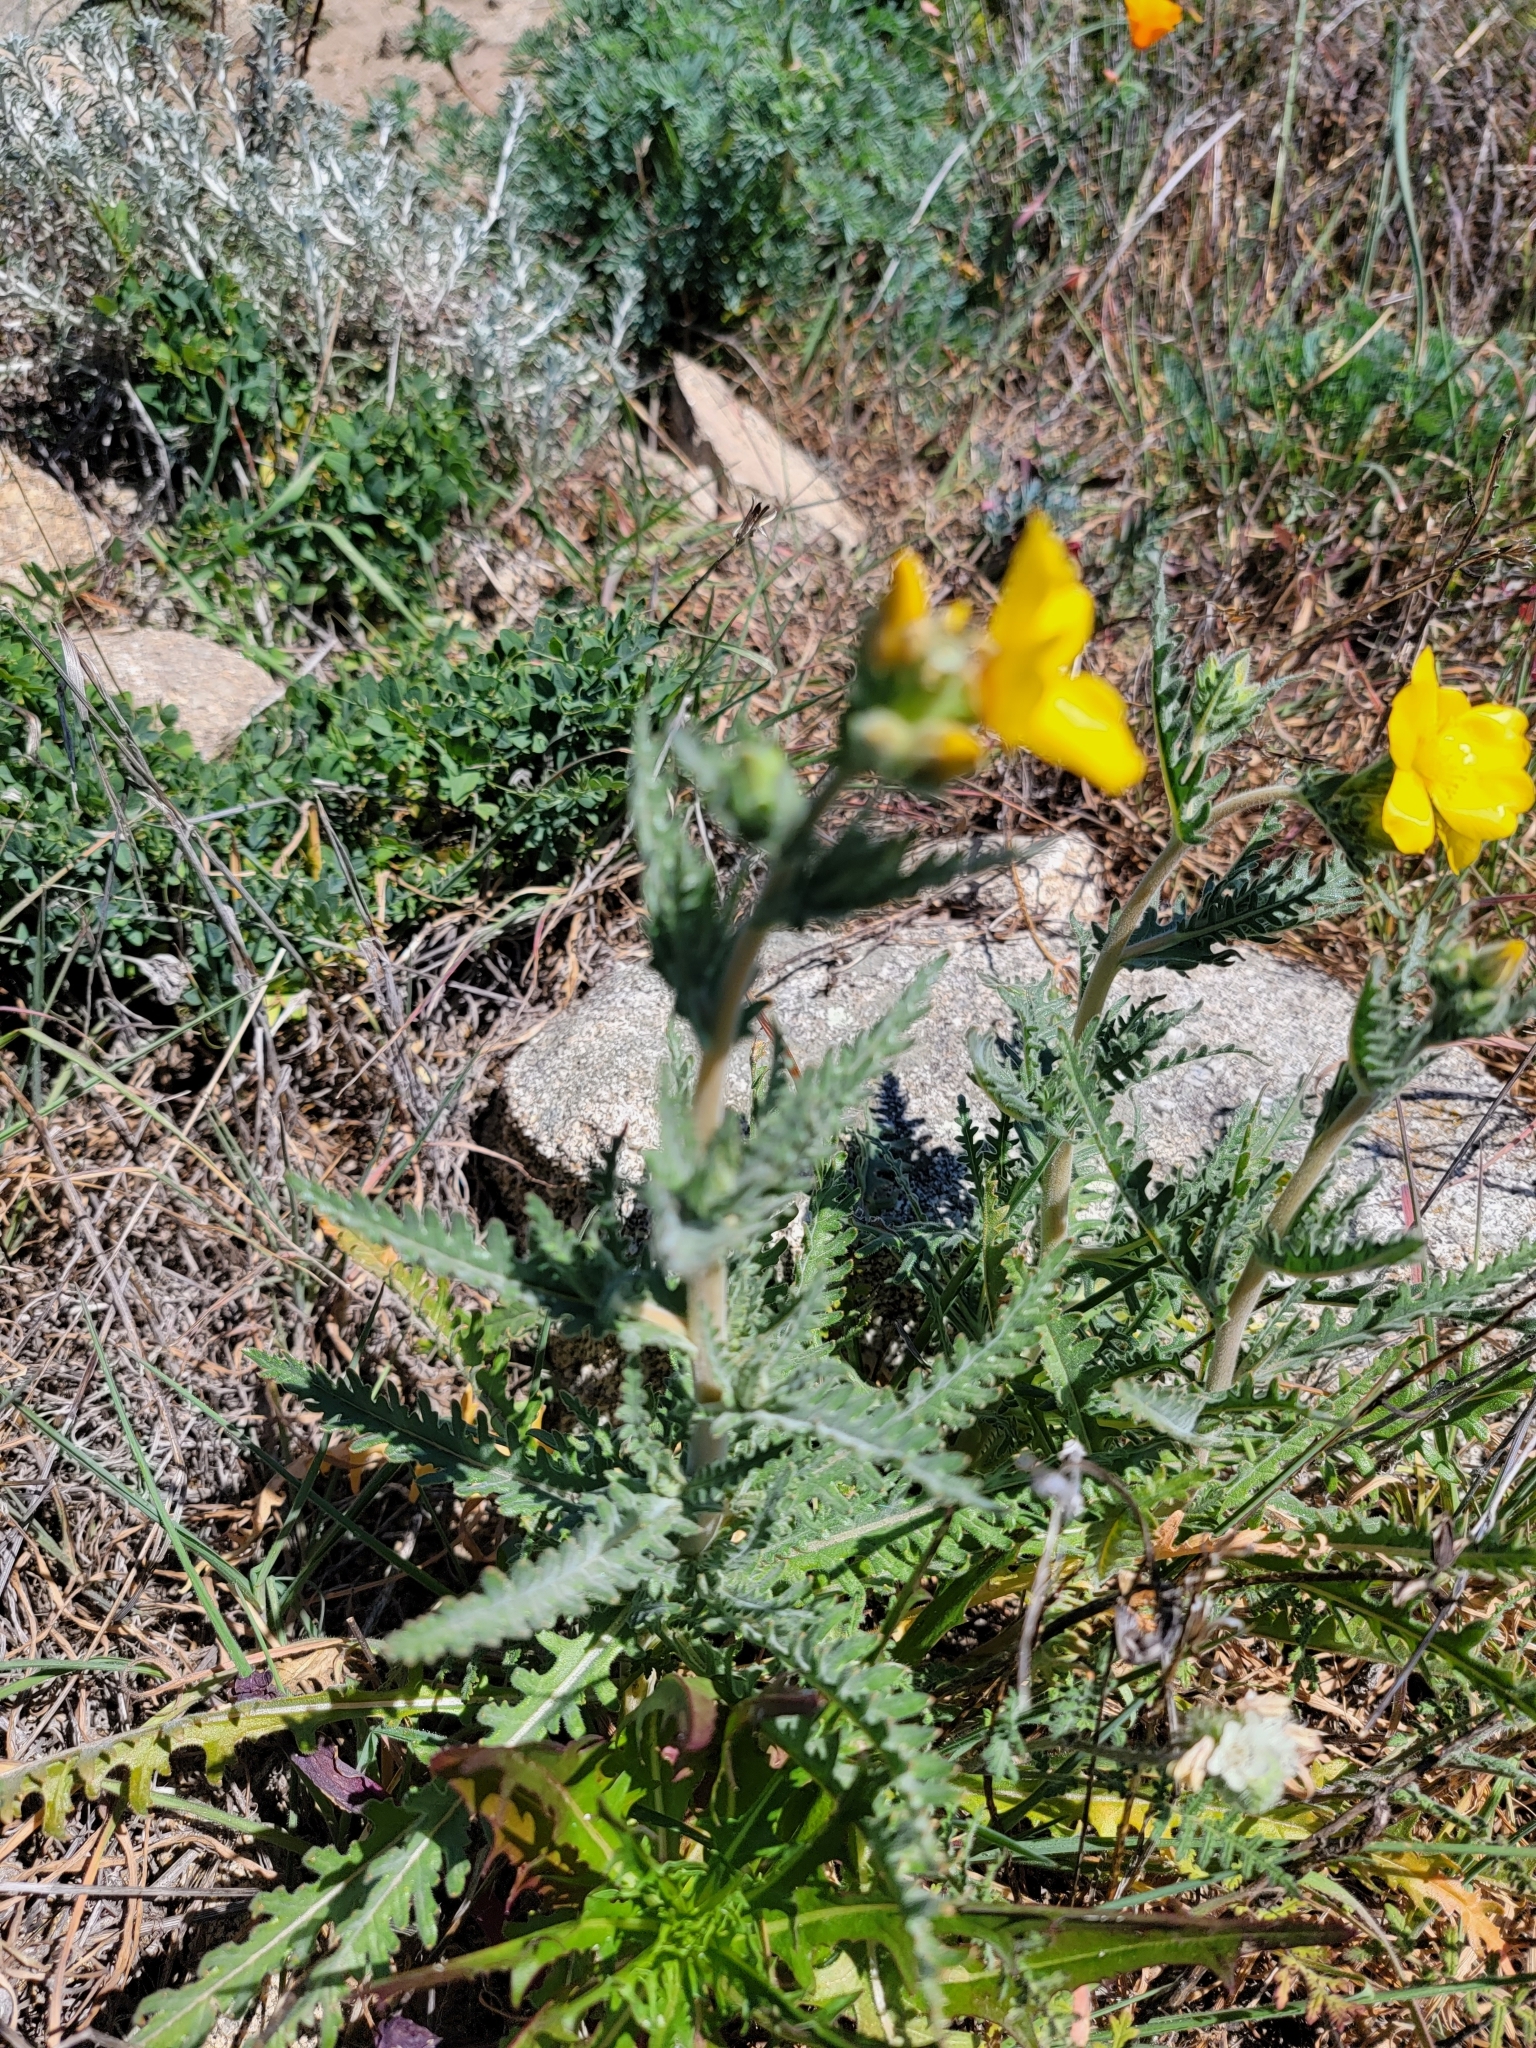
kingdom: Plantae
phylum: Tracheophyta
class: Magnoliopsida
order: Cornales
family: Loasaceae
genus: Mentzelia
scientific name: Mentzelia gracilenta
